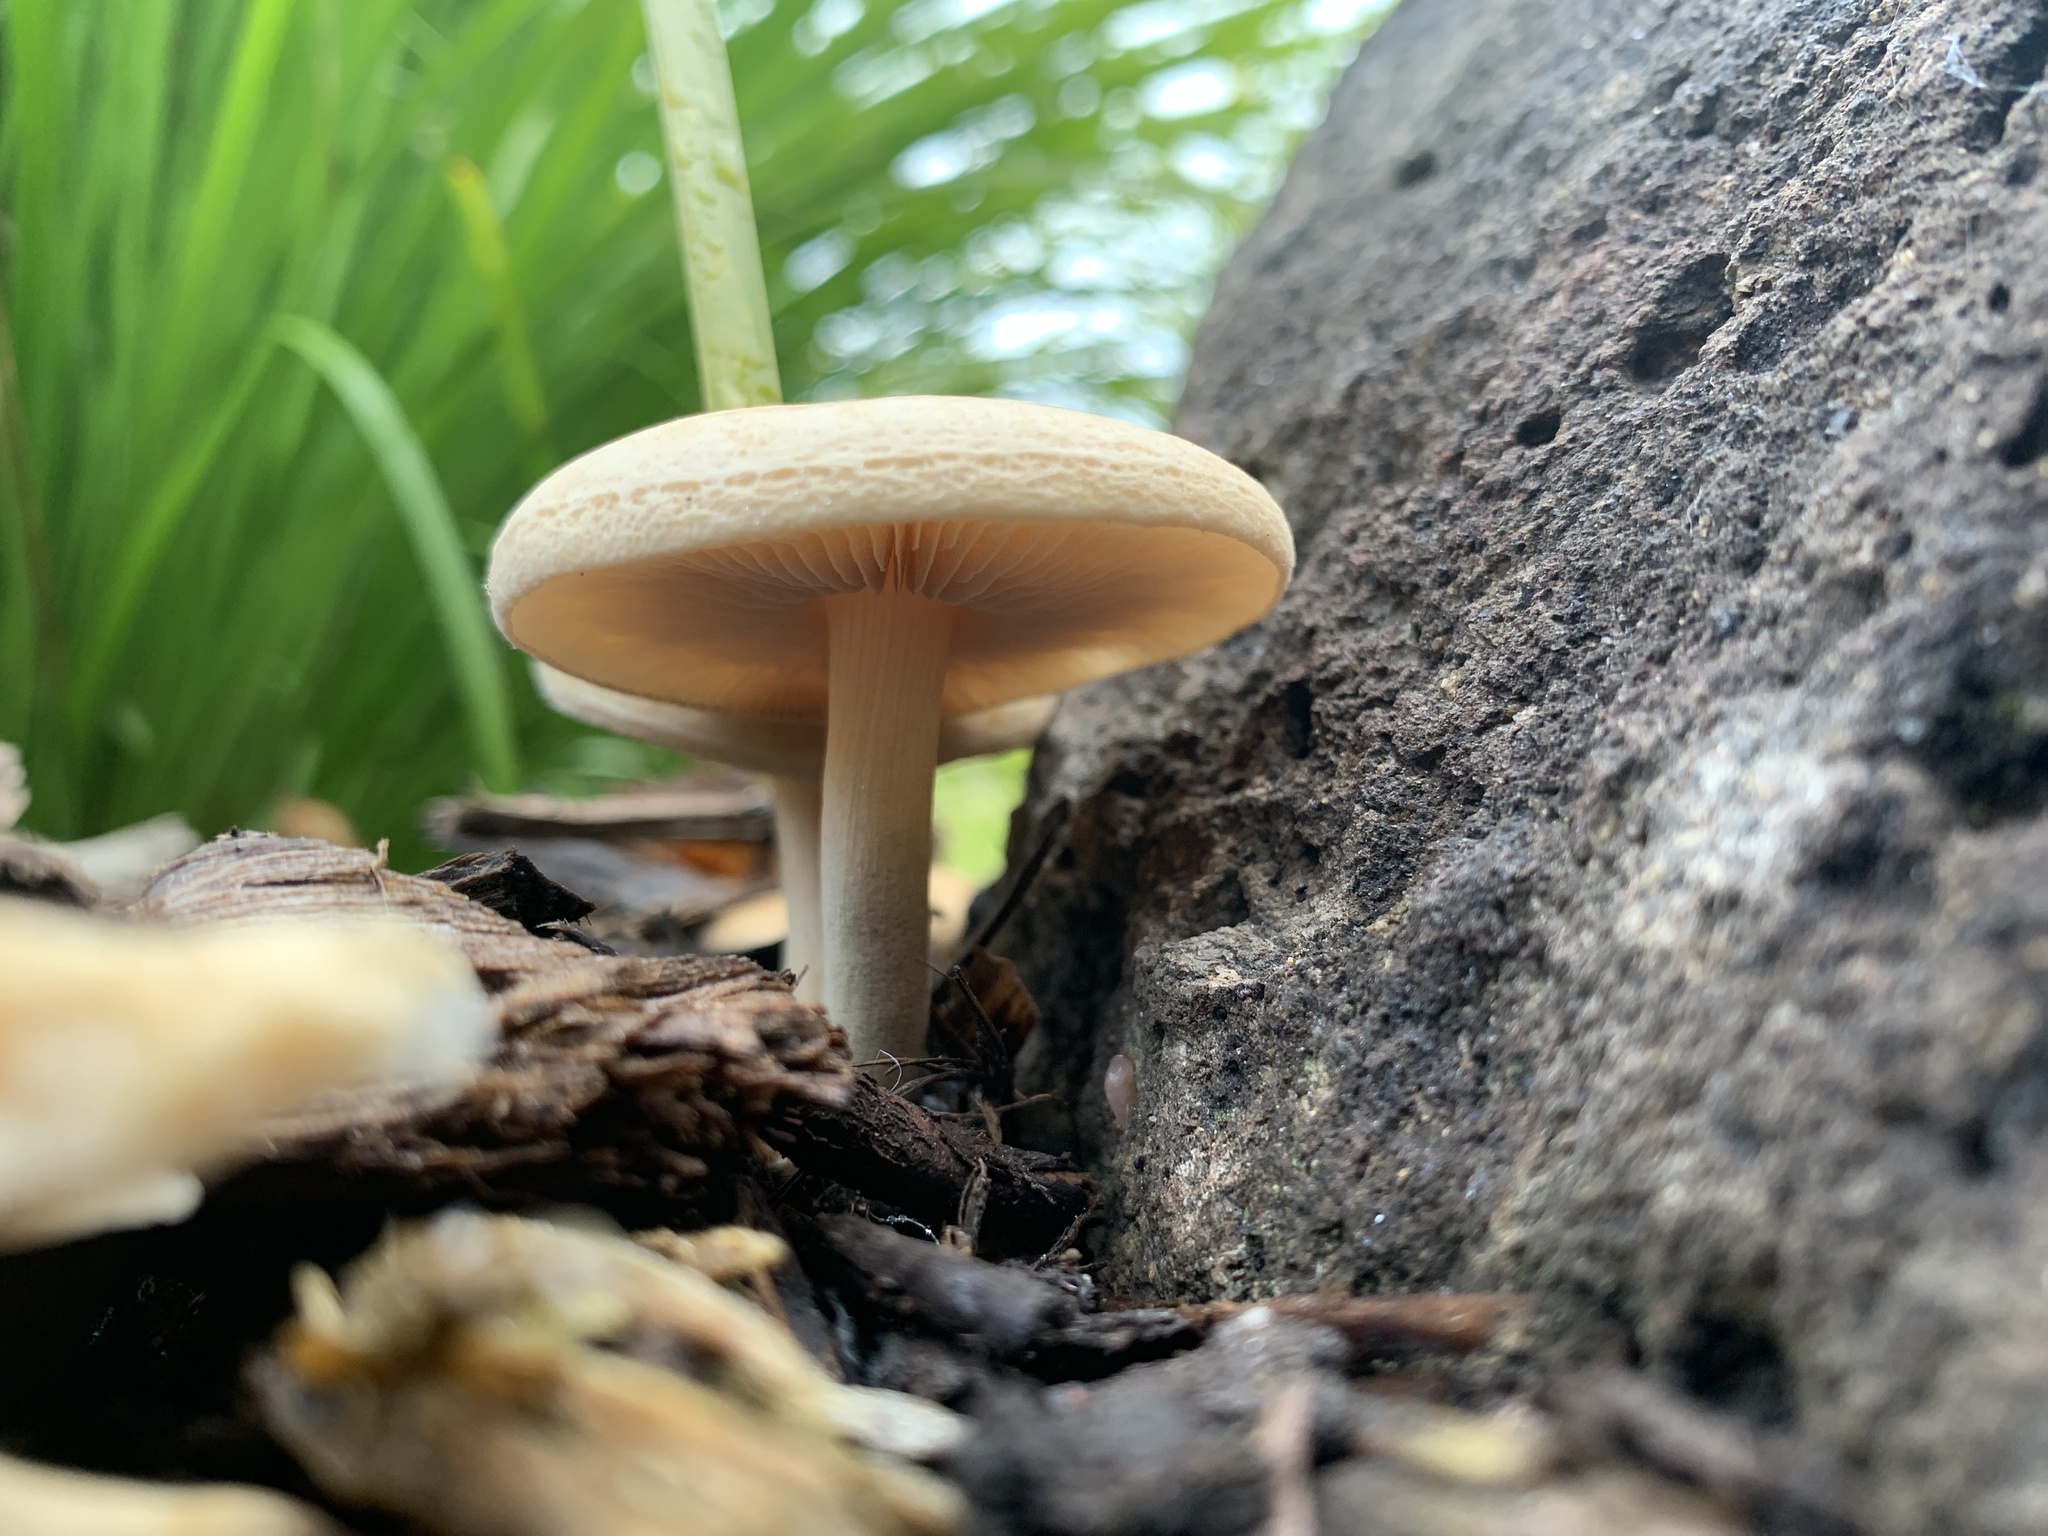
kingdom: Fungi
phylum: Basidiomycota
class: Agaricomycetes
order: Agaricales
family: Strophariaceae
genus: Agrocybe
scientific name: Agrocybe praecox
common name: Spring fieldcap
